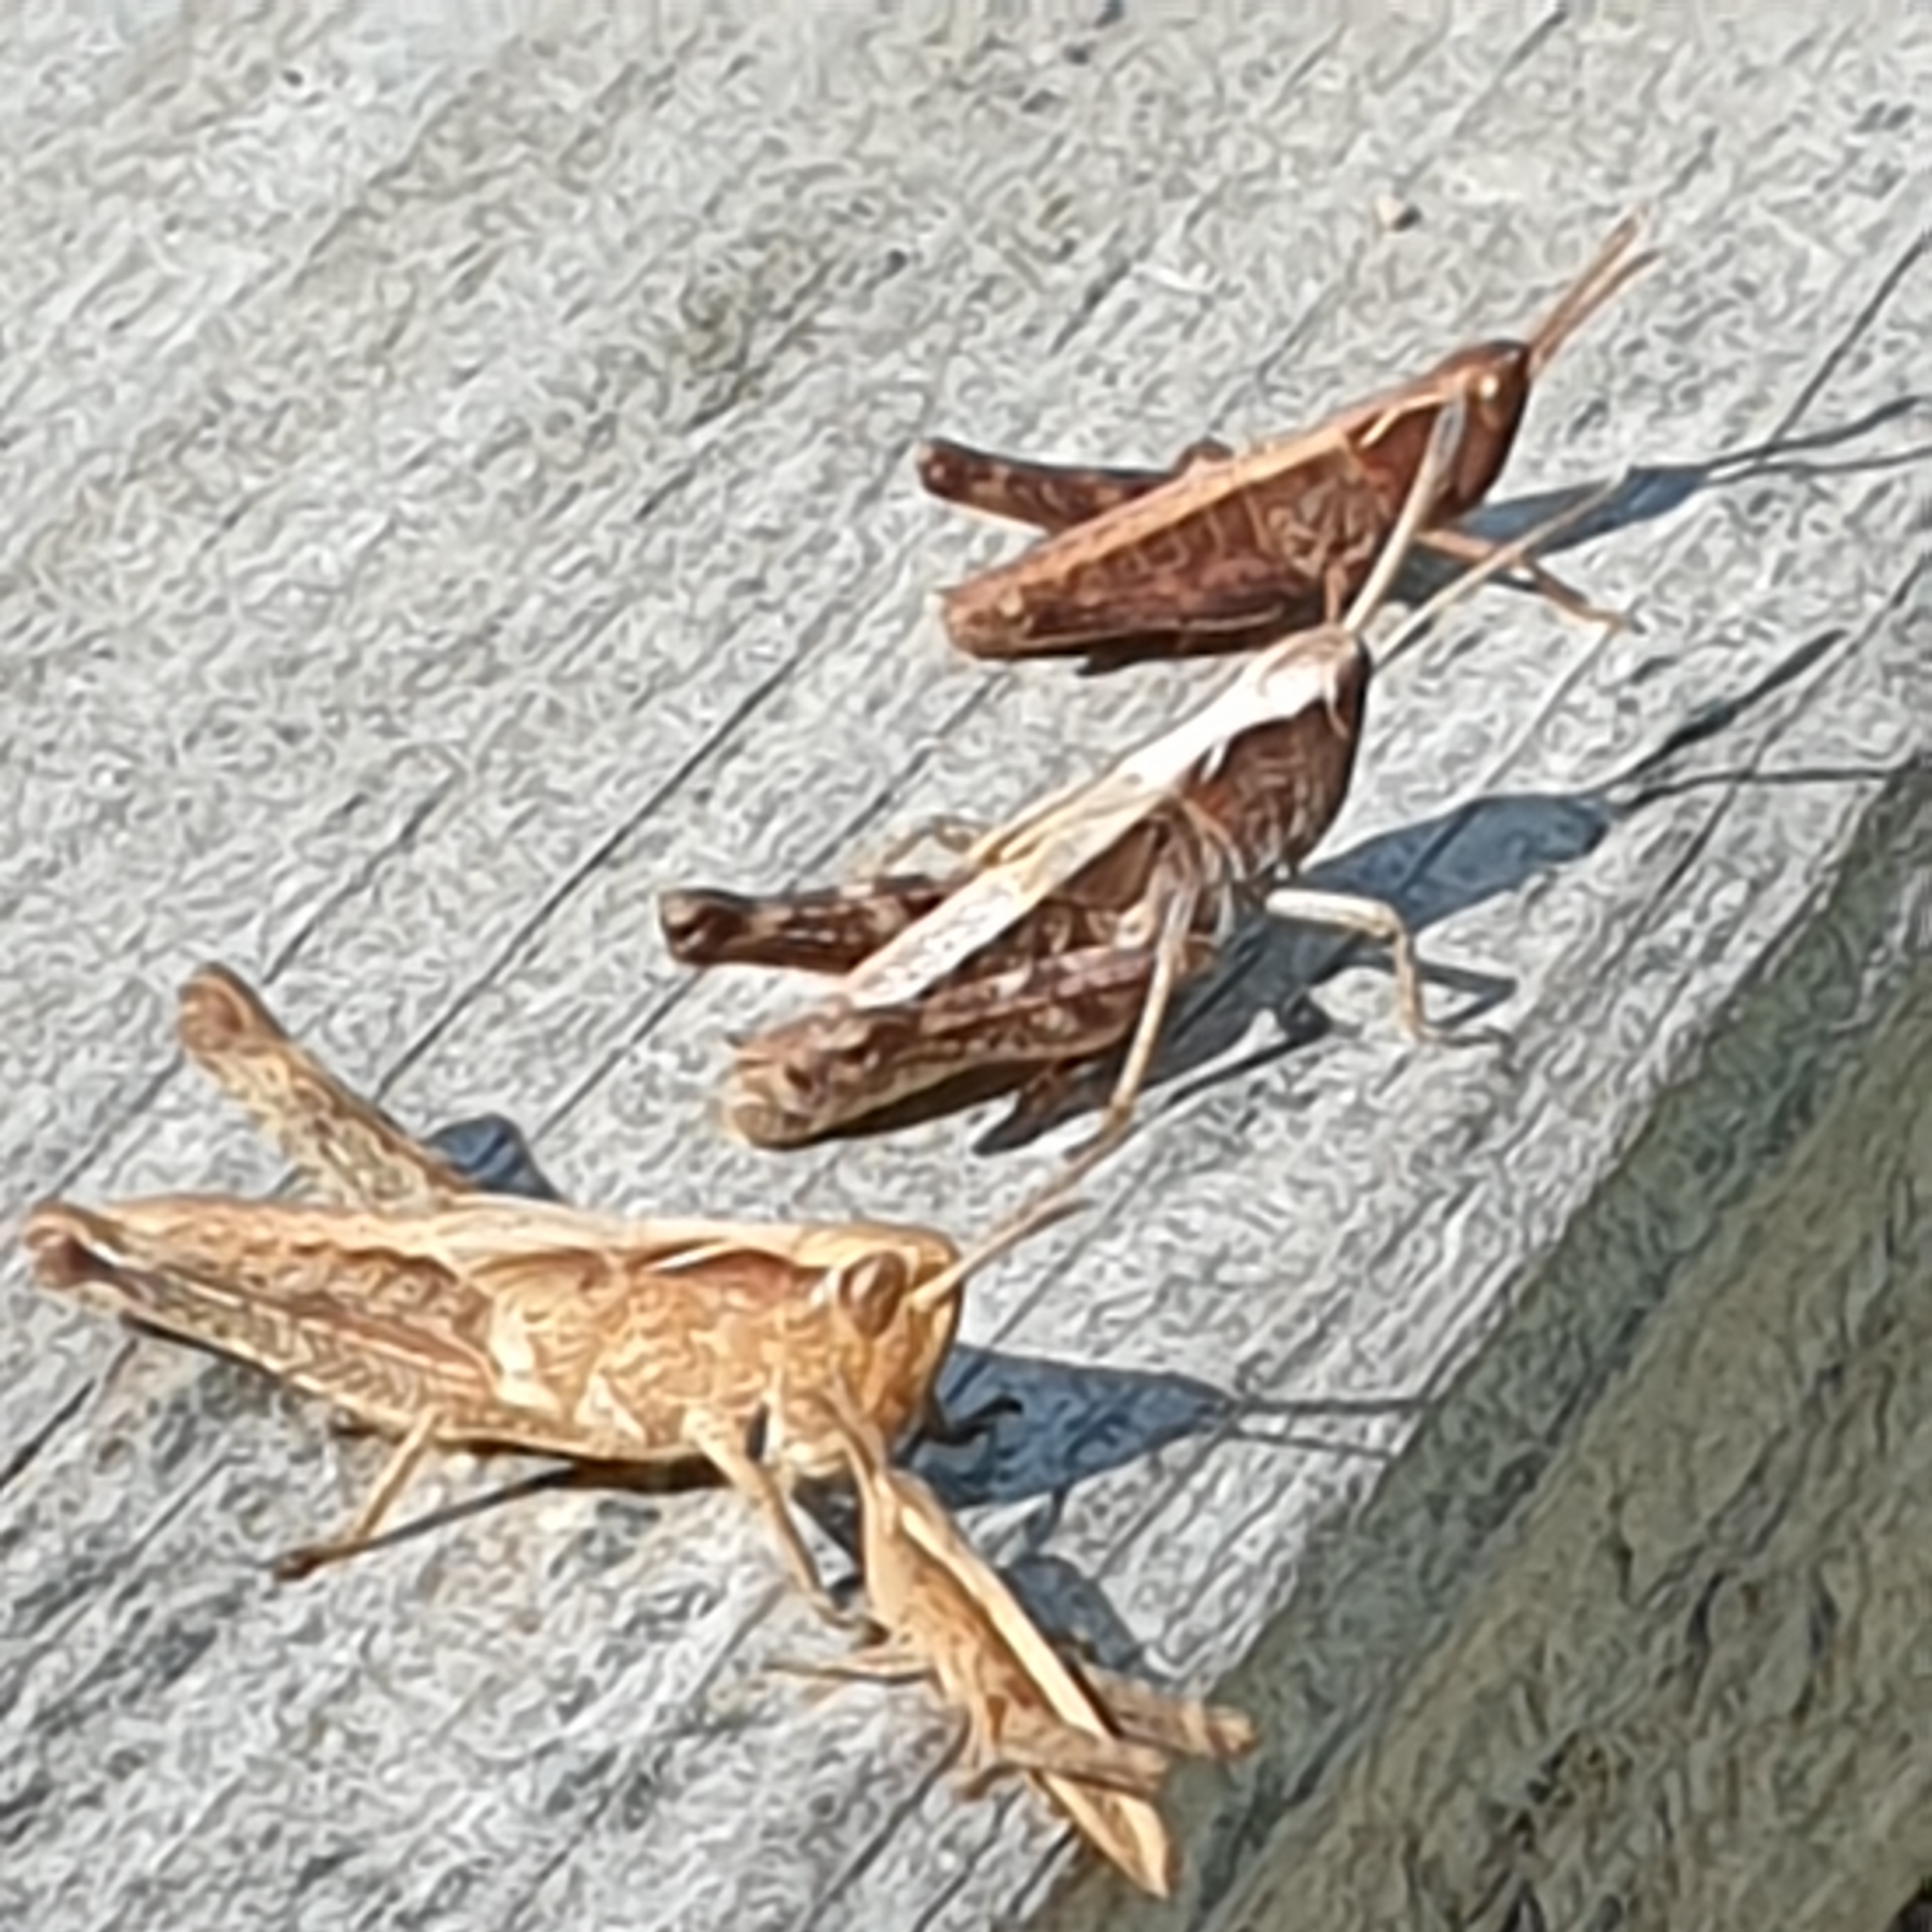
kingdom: Animalia
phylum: Arthropoda
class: Insecta
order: Orthoptera
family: Acrididae
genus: Gomphocerippus
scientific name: Gomphocerippus rufus
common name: Rufous grasshopper
